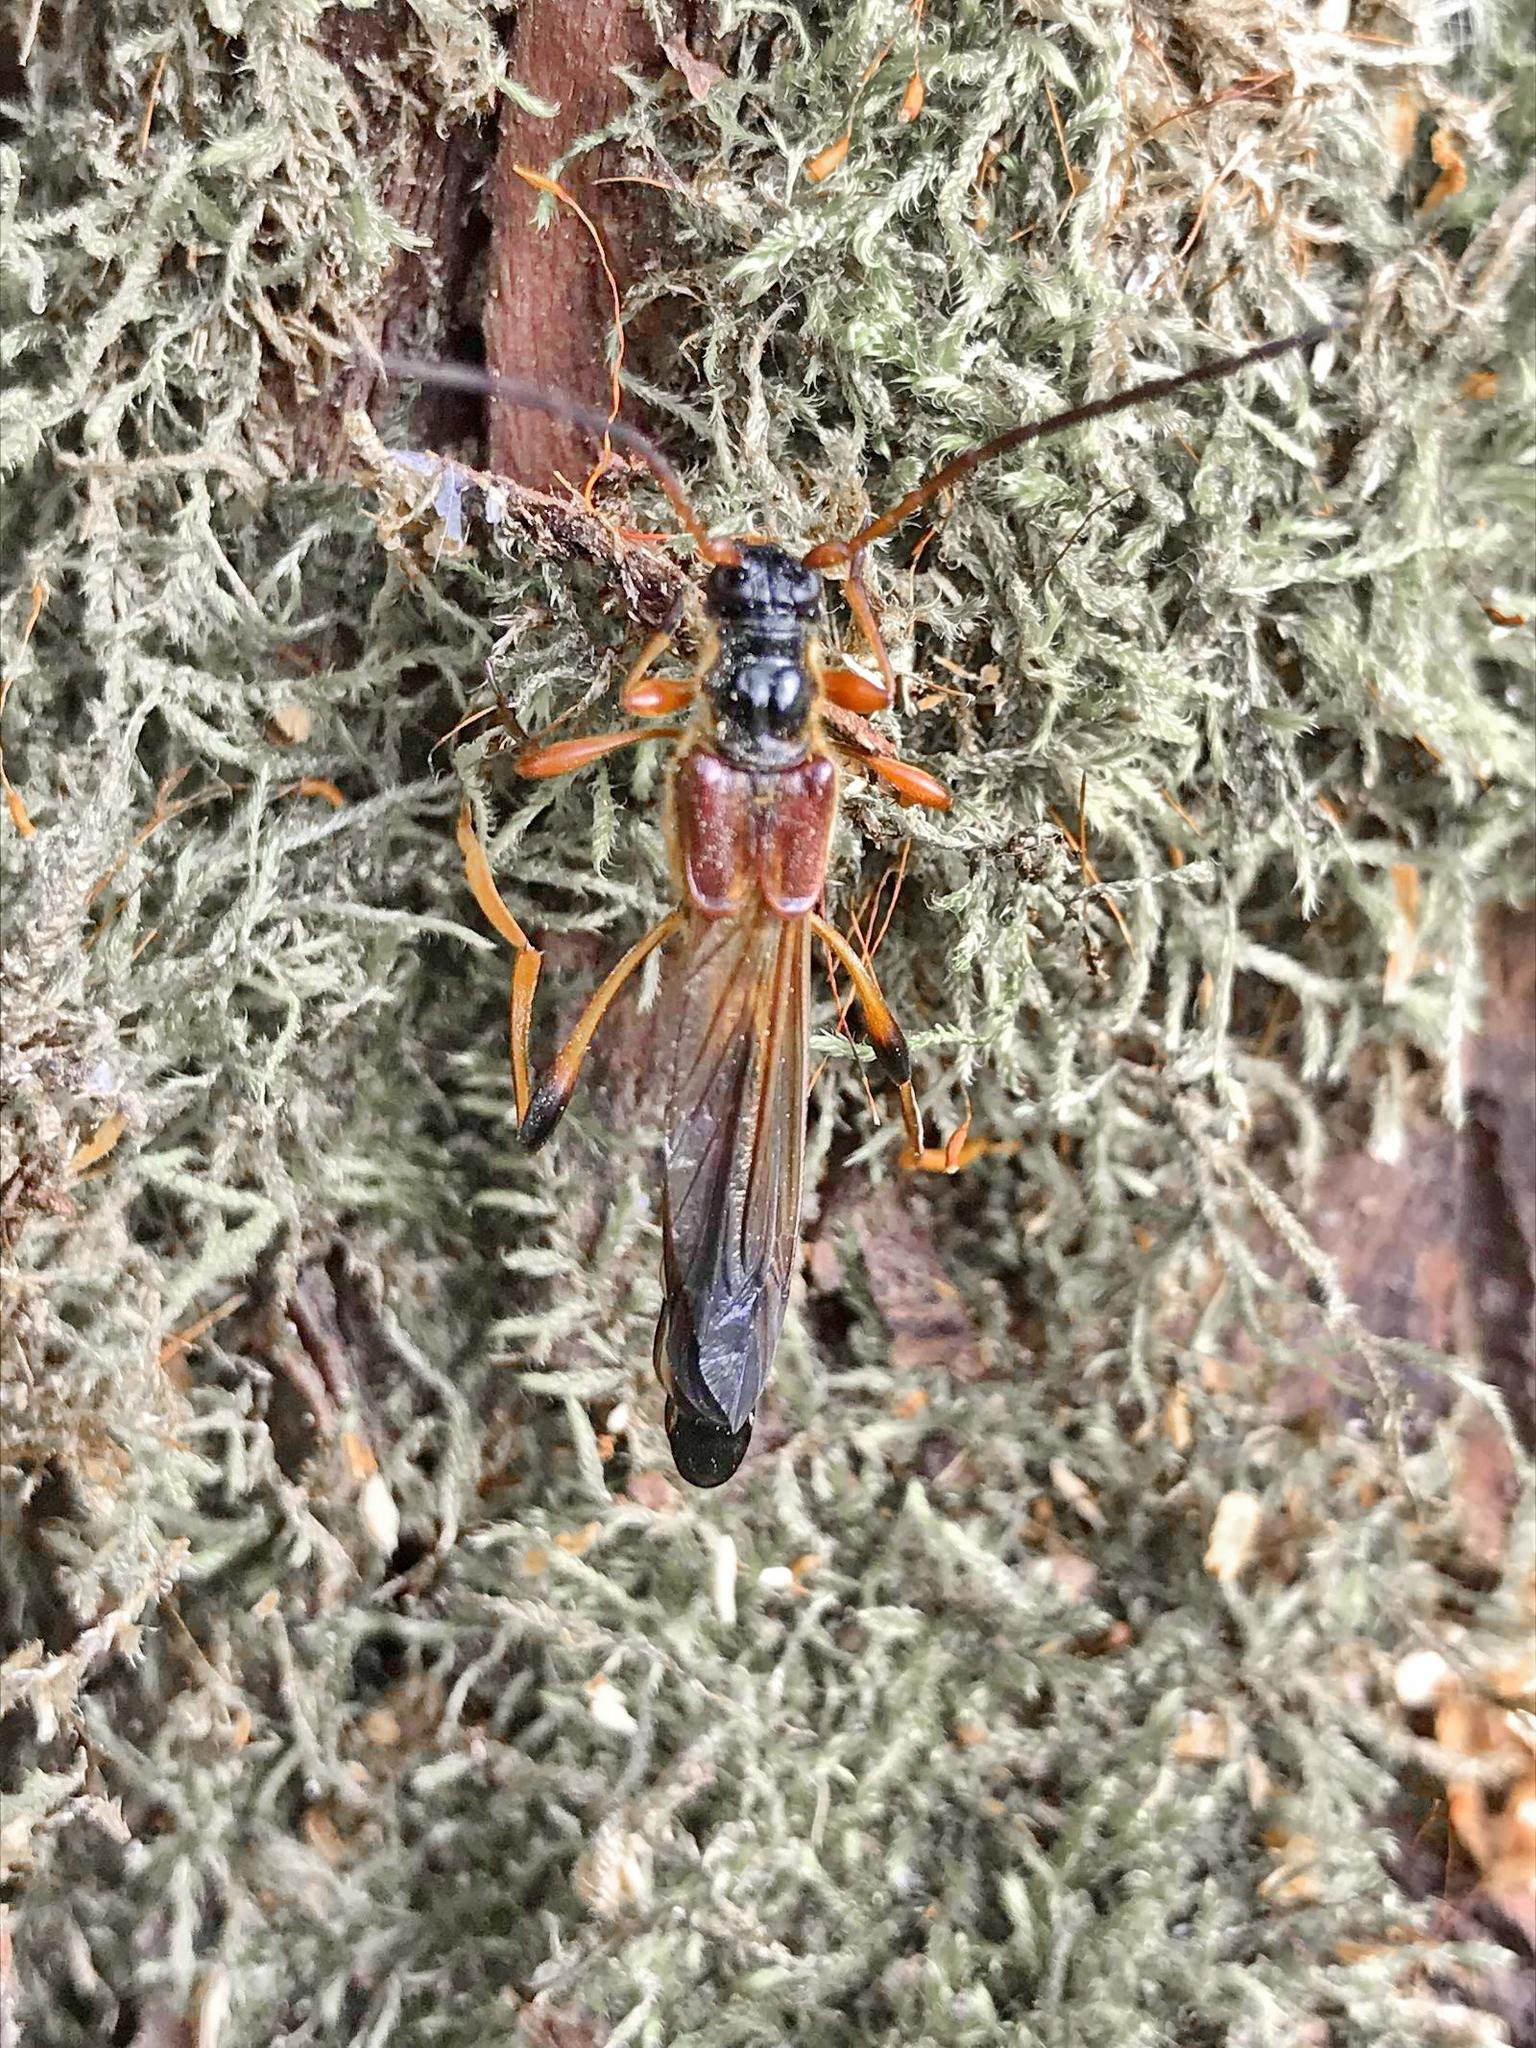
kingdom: Animalia
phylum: Arthropoda
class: Insecta
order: Coleoptera
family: Cerambycidae
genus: Necydalis
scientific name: Necydalis major
